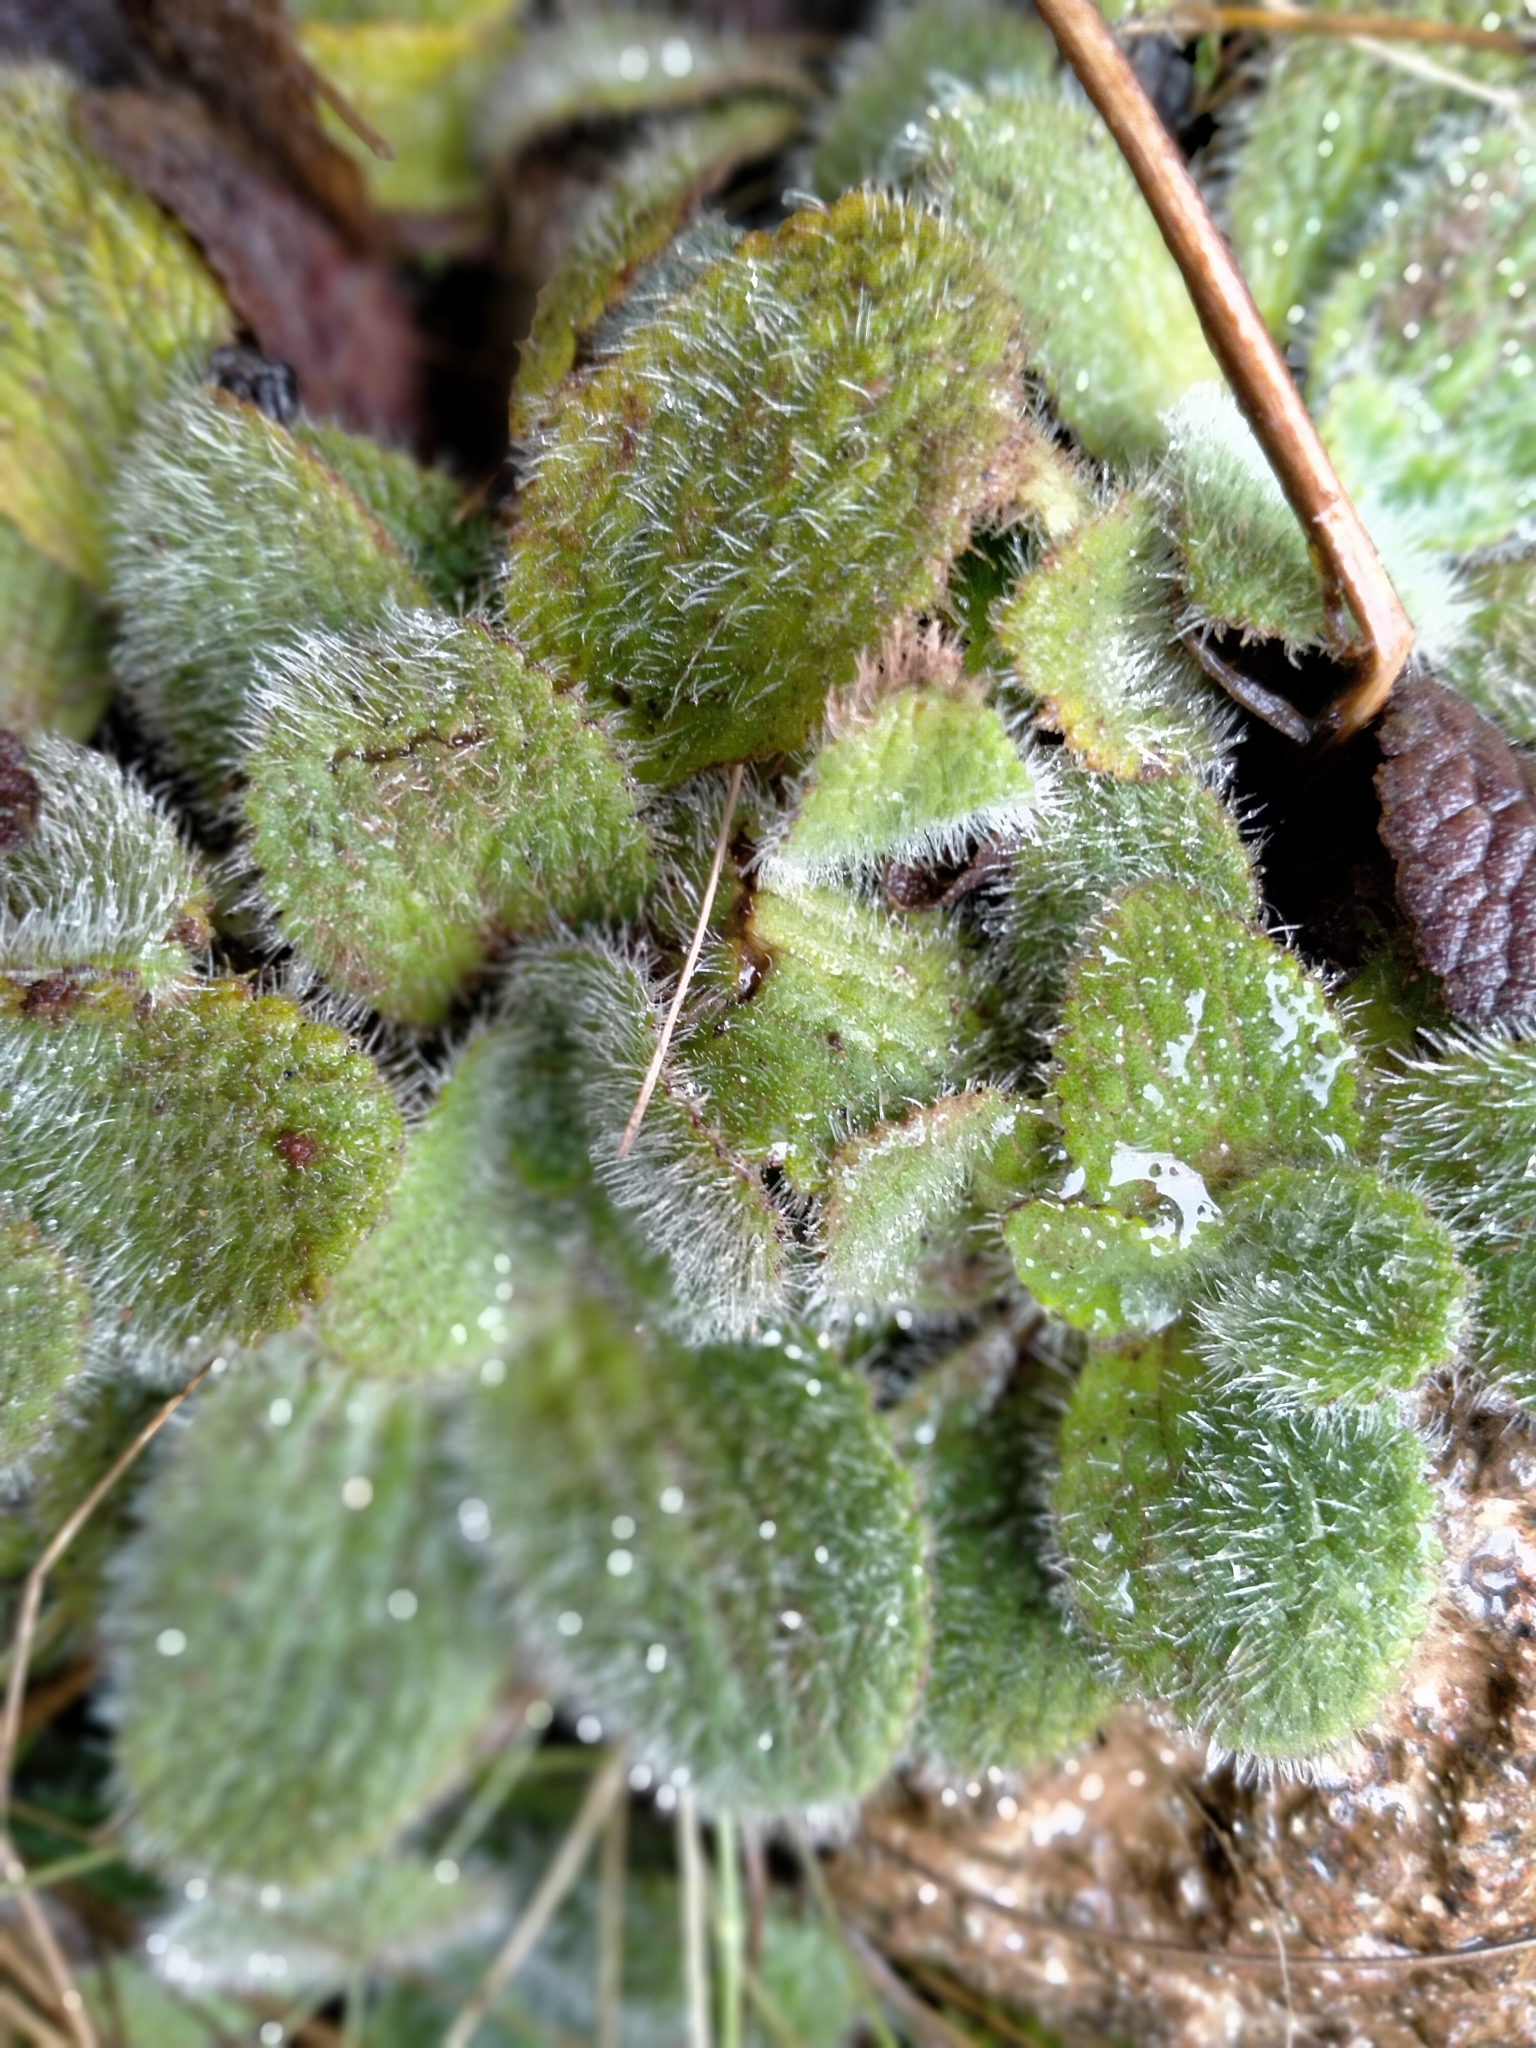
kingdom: Plantae
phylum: Tracheophyta
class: Magnoliopsida
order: Lamiales
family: Plantaginaceae
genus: Ourisia
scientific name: Ourisia sessilifolia
